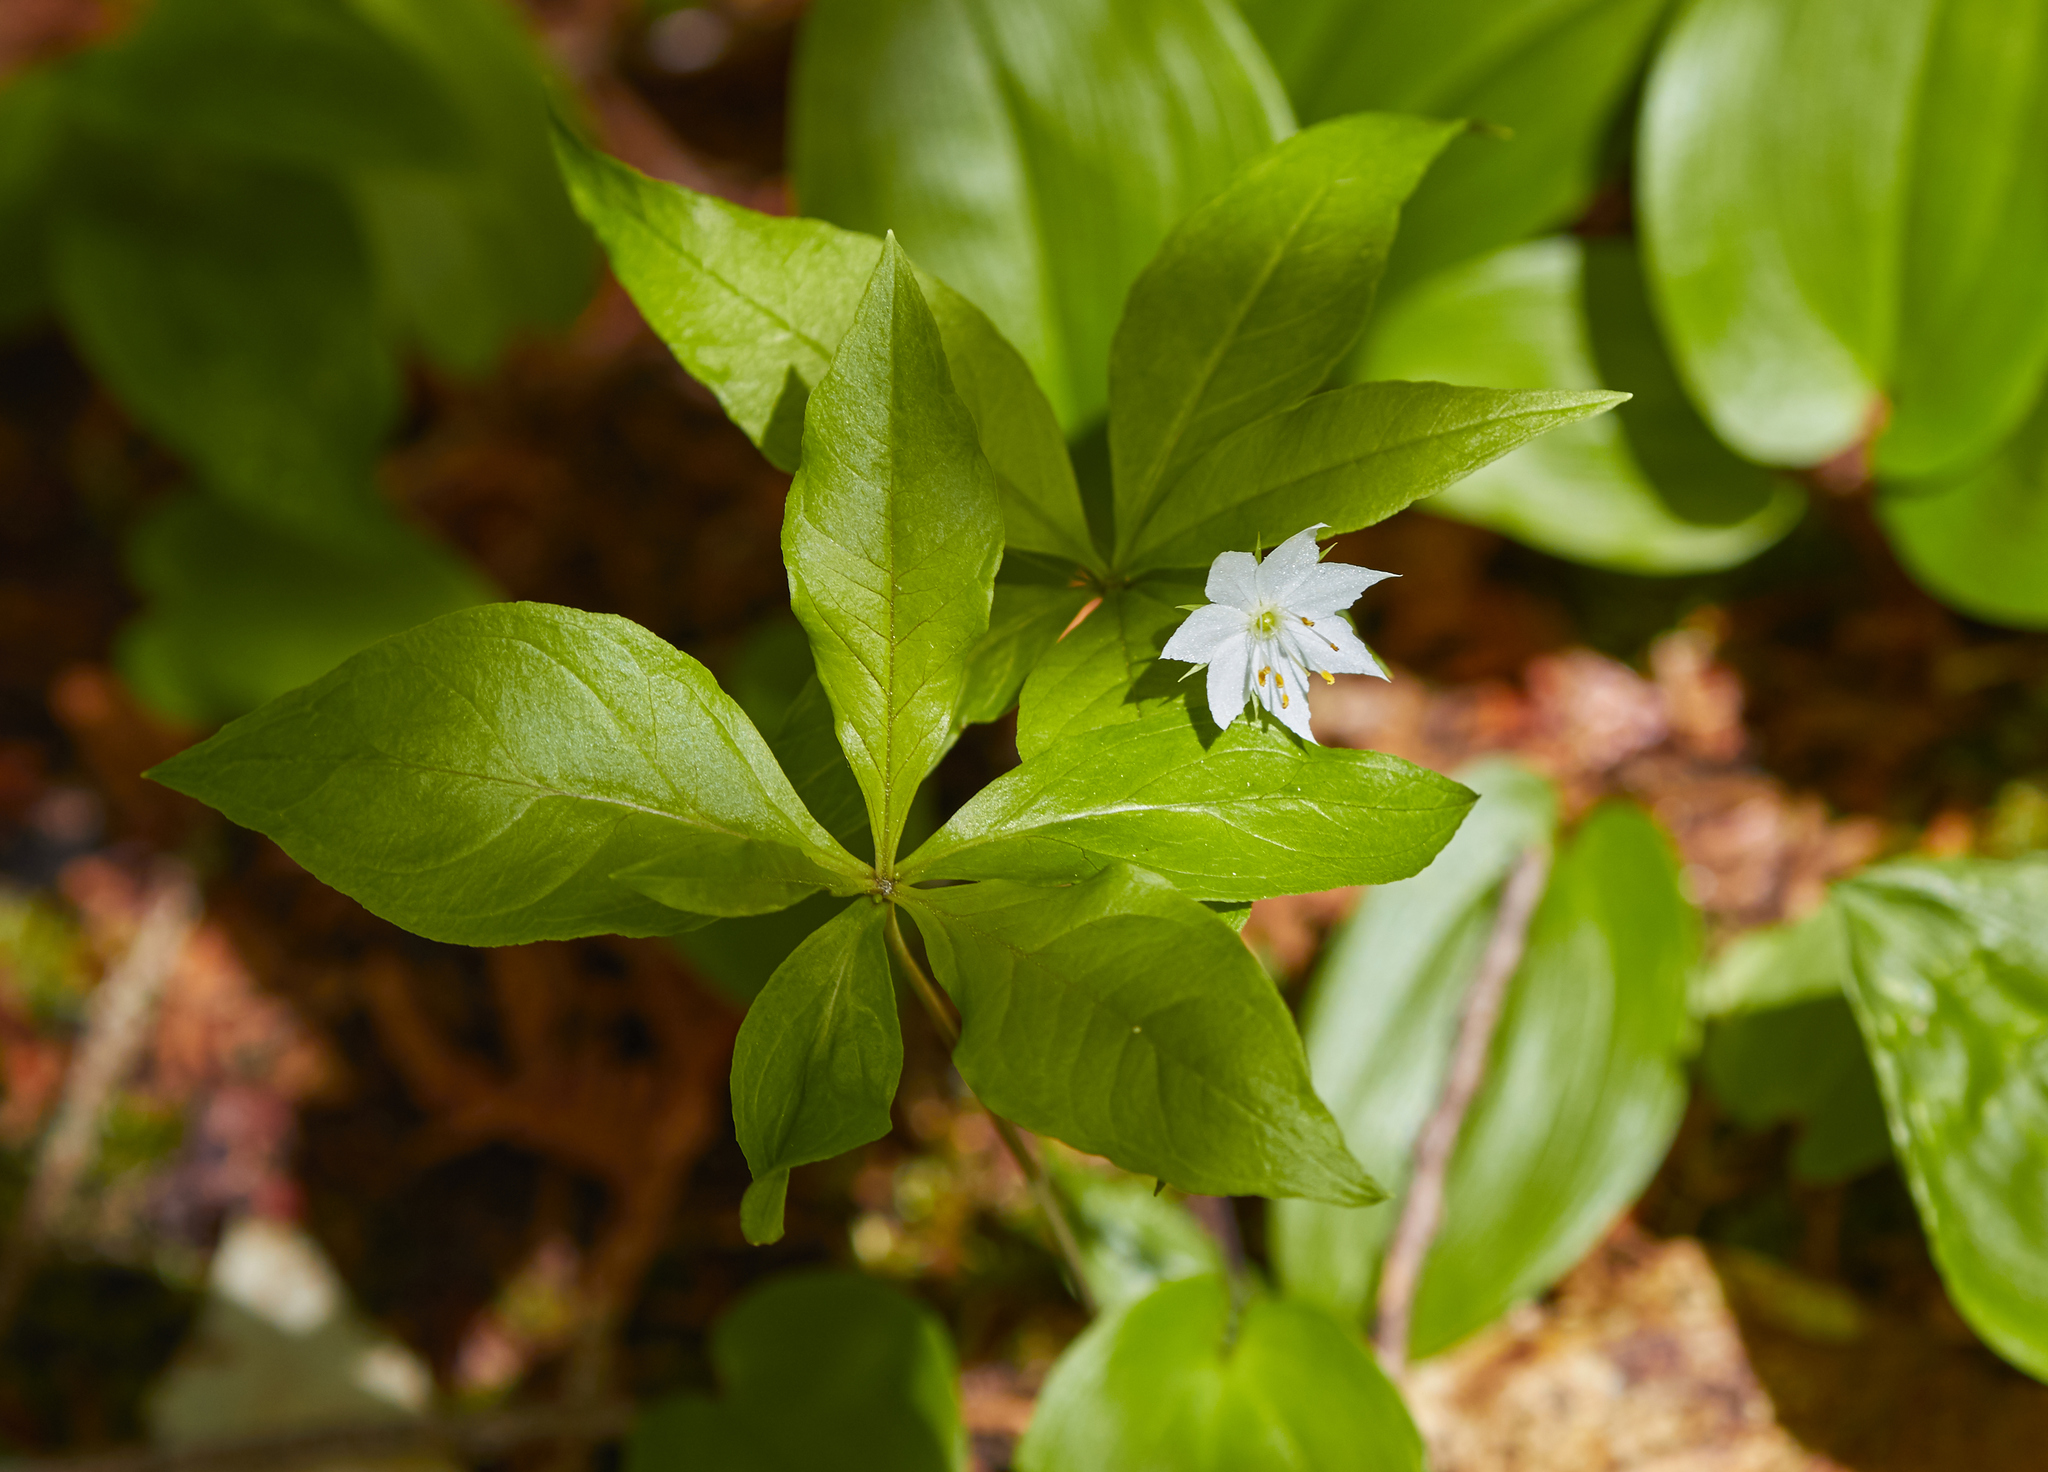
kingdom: Plantae
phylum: Tracheophyta
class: Magnoliopsida
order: Ericales
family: Primulaceae
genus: Lysimachia
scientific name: Lysimachia borealis
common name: American starflower
